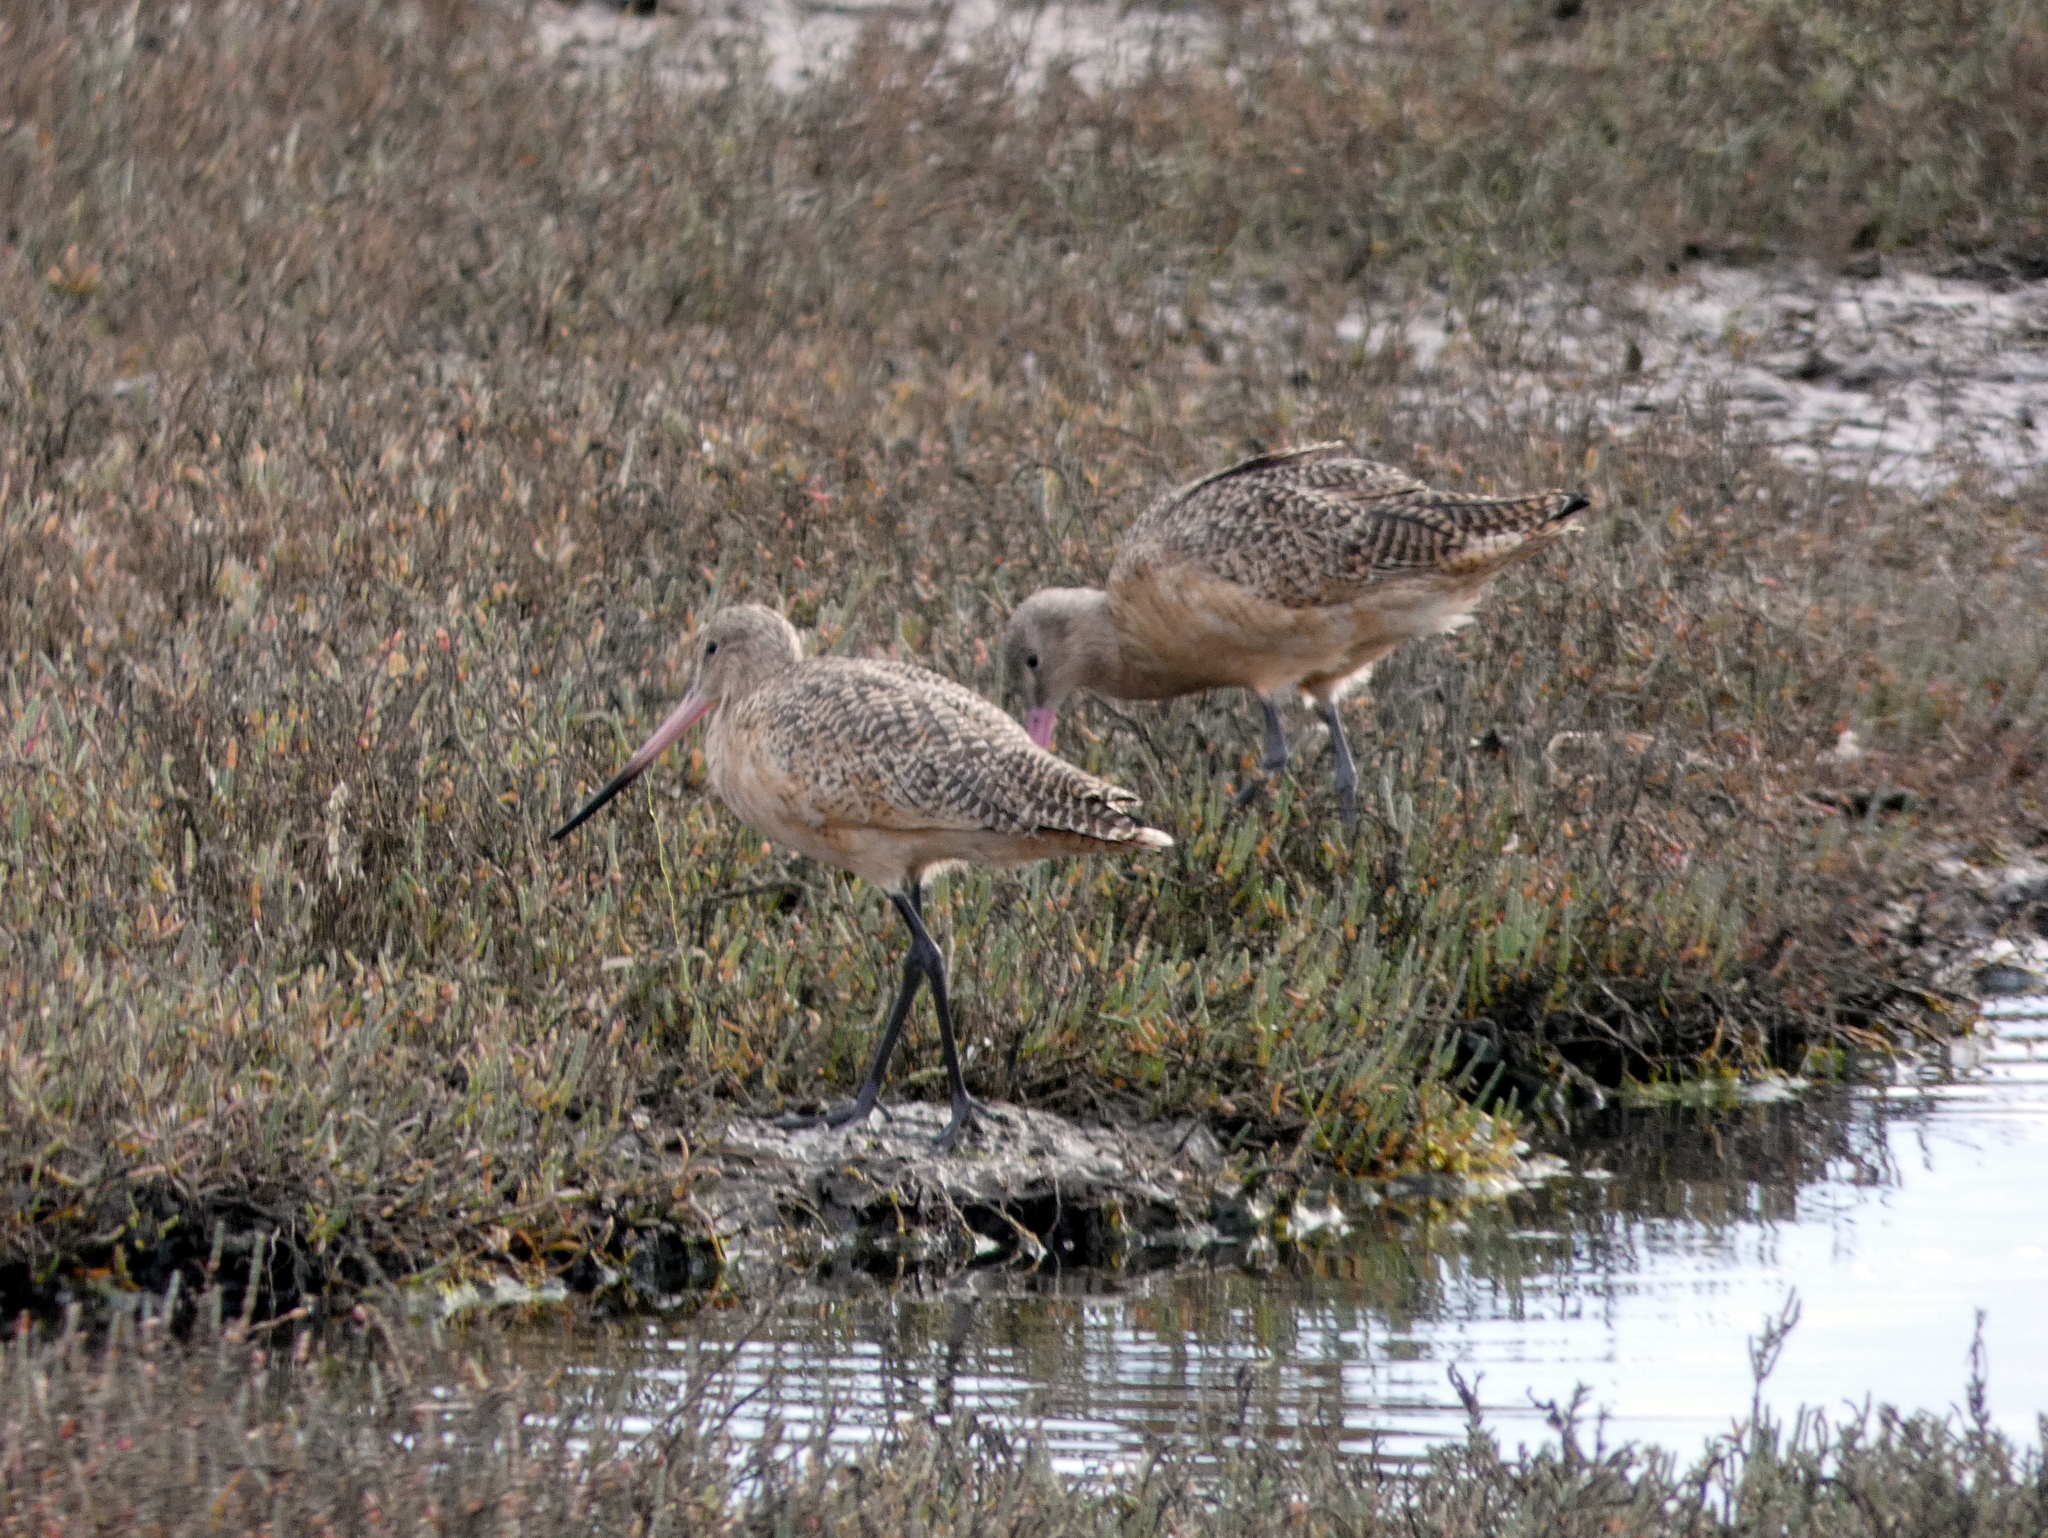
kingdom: Animalia
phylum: Chordata
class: Aves
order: Charadriiformes
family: Scolopacidae
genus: Limosa
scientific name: Limosa fedoa
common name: Marbled godwit
